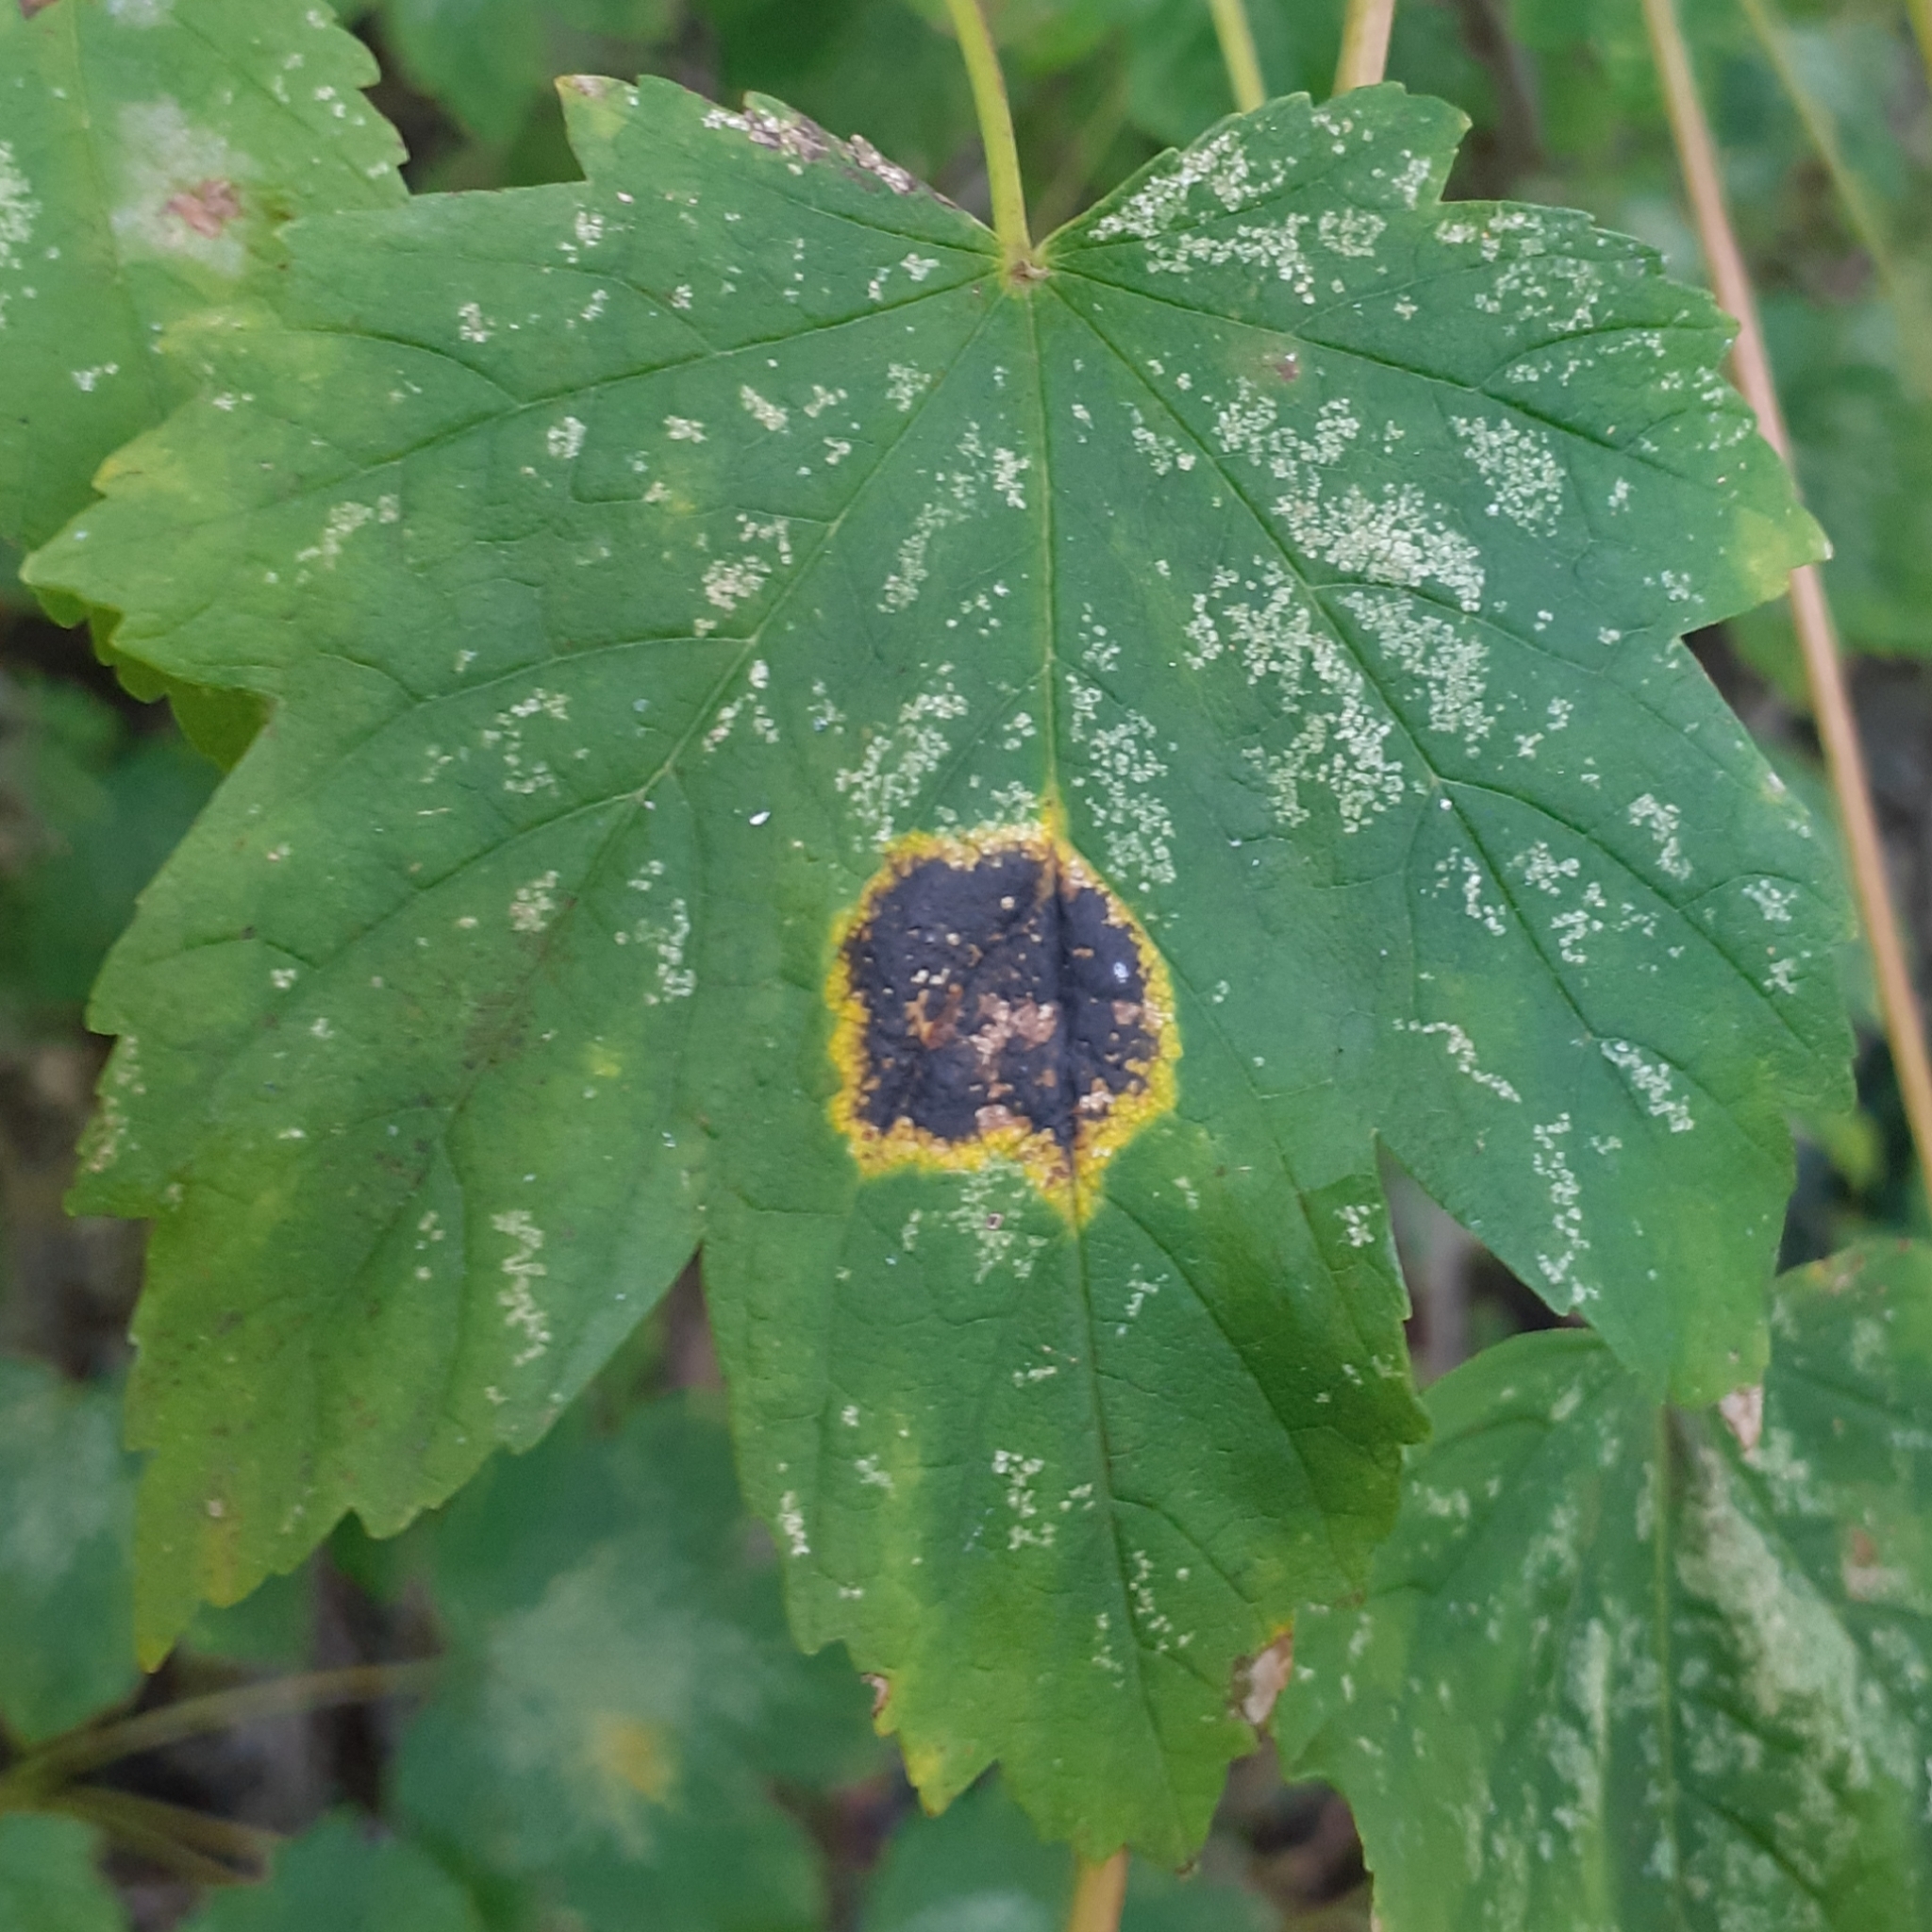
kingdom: Fungi
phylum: Ascomycota
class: Leotiomycetes
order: Rhytismatales
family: Rhytismataceae
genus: Rhytisma
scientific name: Rhytisma acerinum
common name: European tar spot
